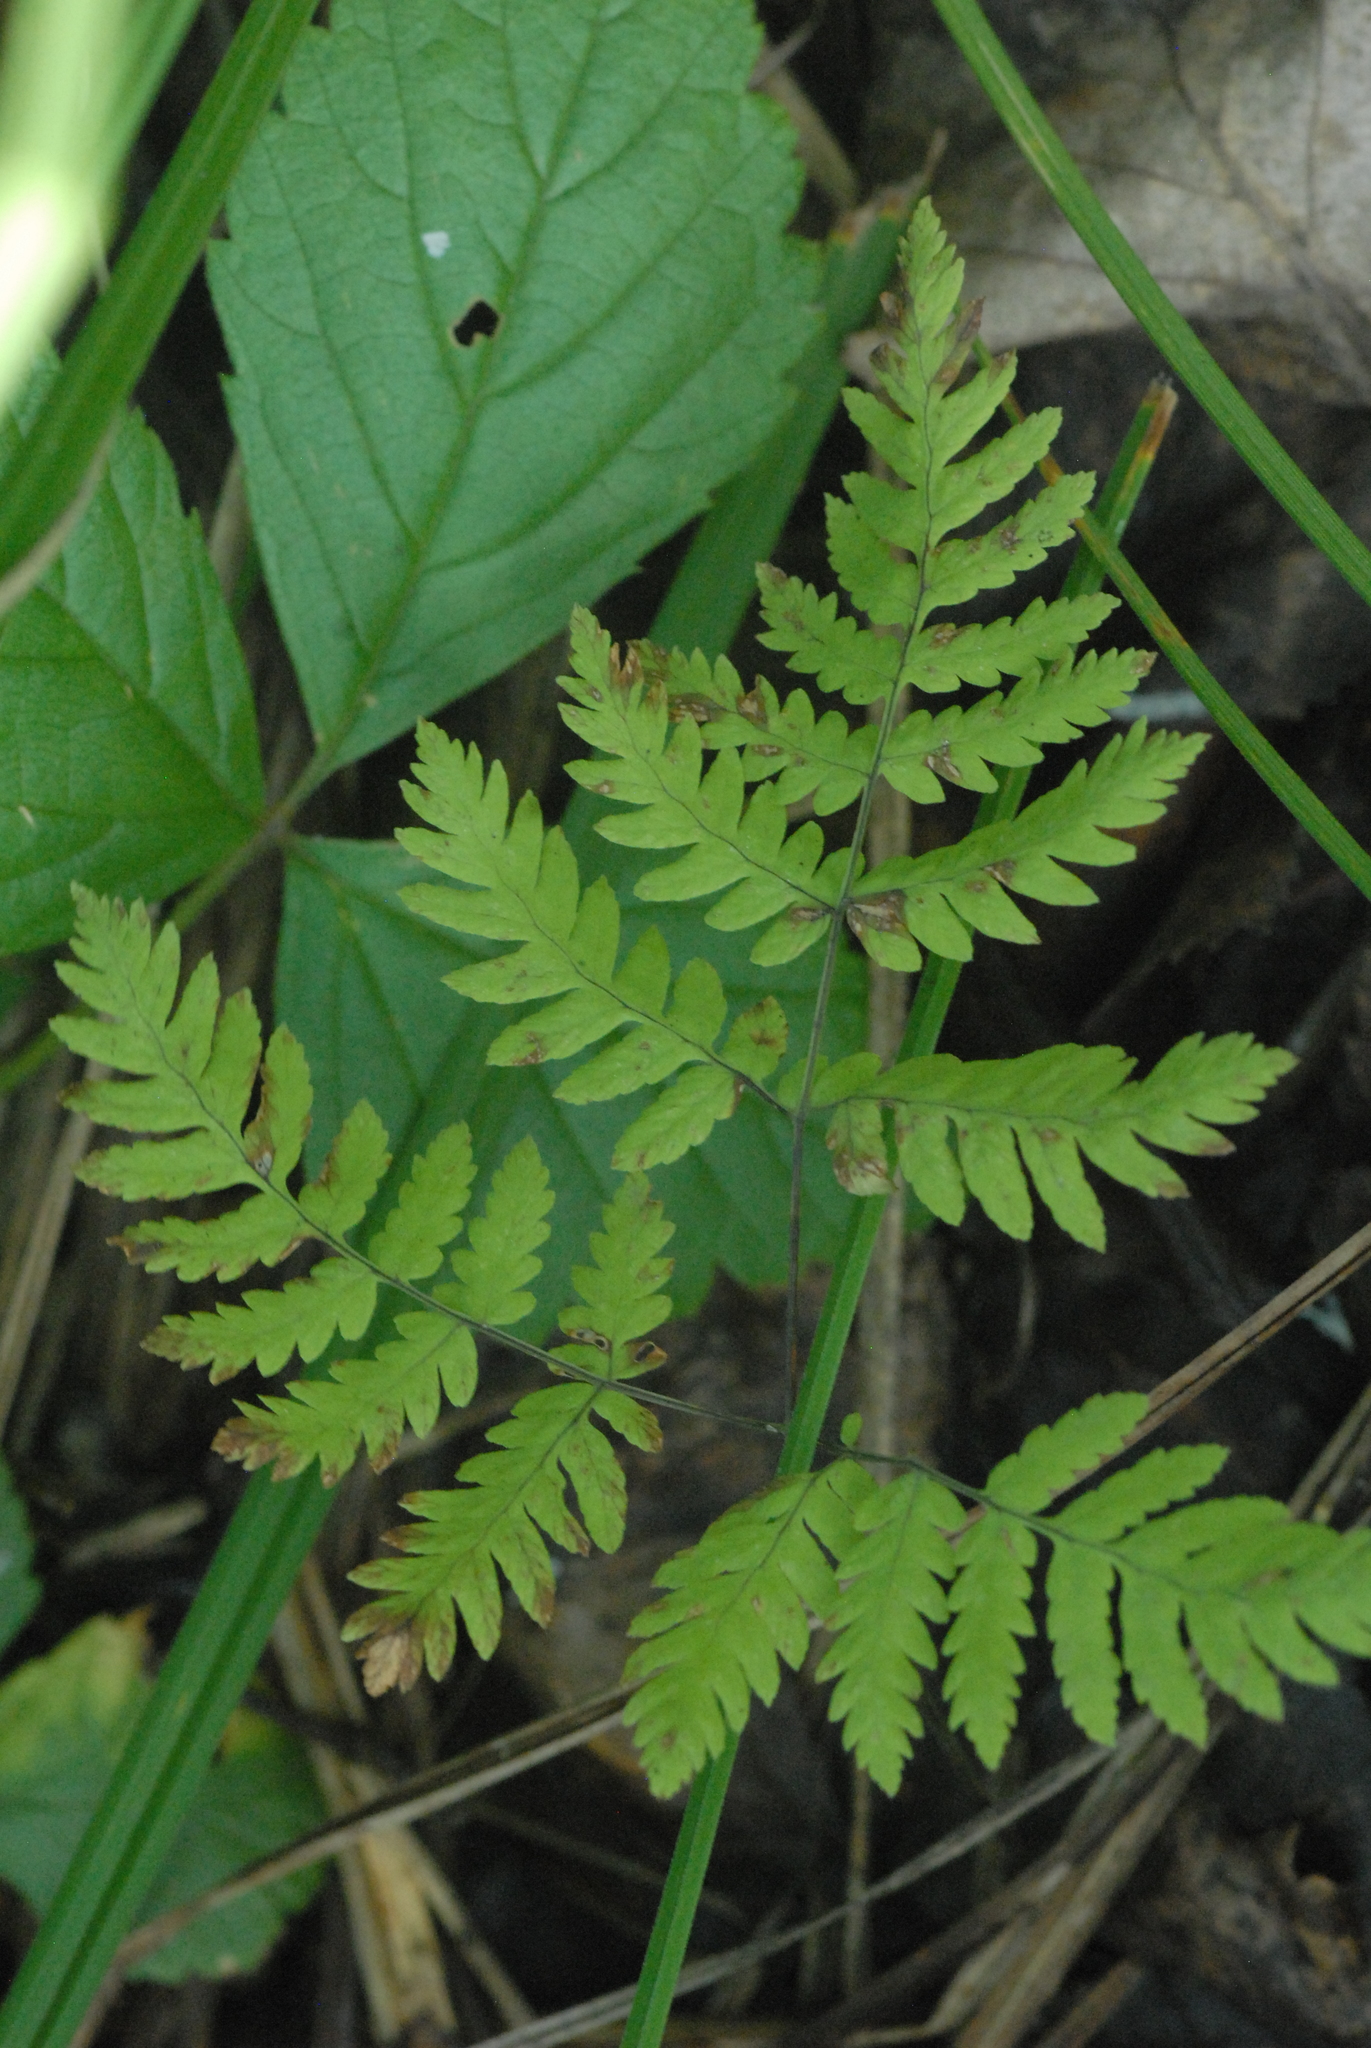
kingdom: Plantae
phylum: Tracheophyta
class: Polypodiopsida
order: Polypodiales
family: Cystopteridaceae
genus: Gymnocarpium
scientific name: Gymnocarpium dryopteris
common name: Oak fern
